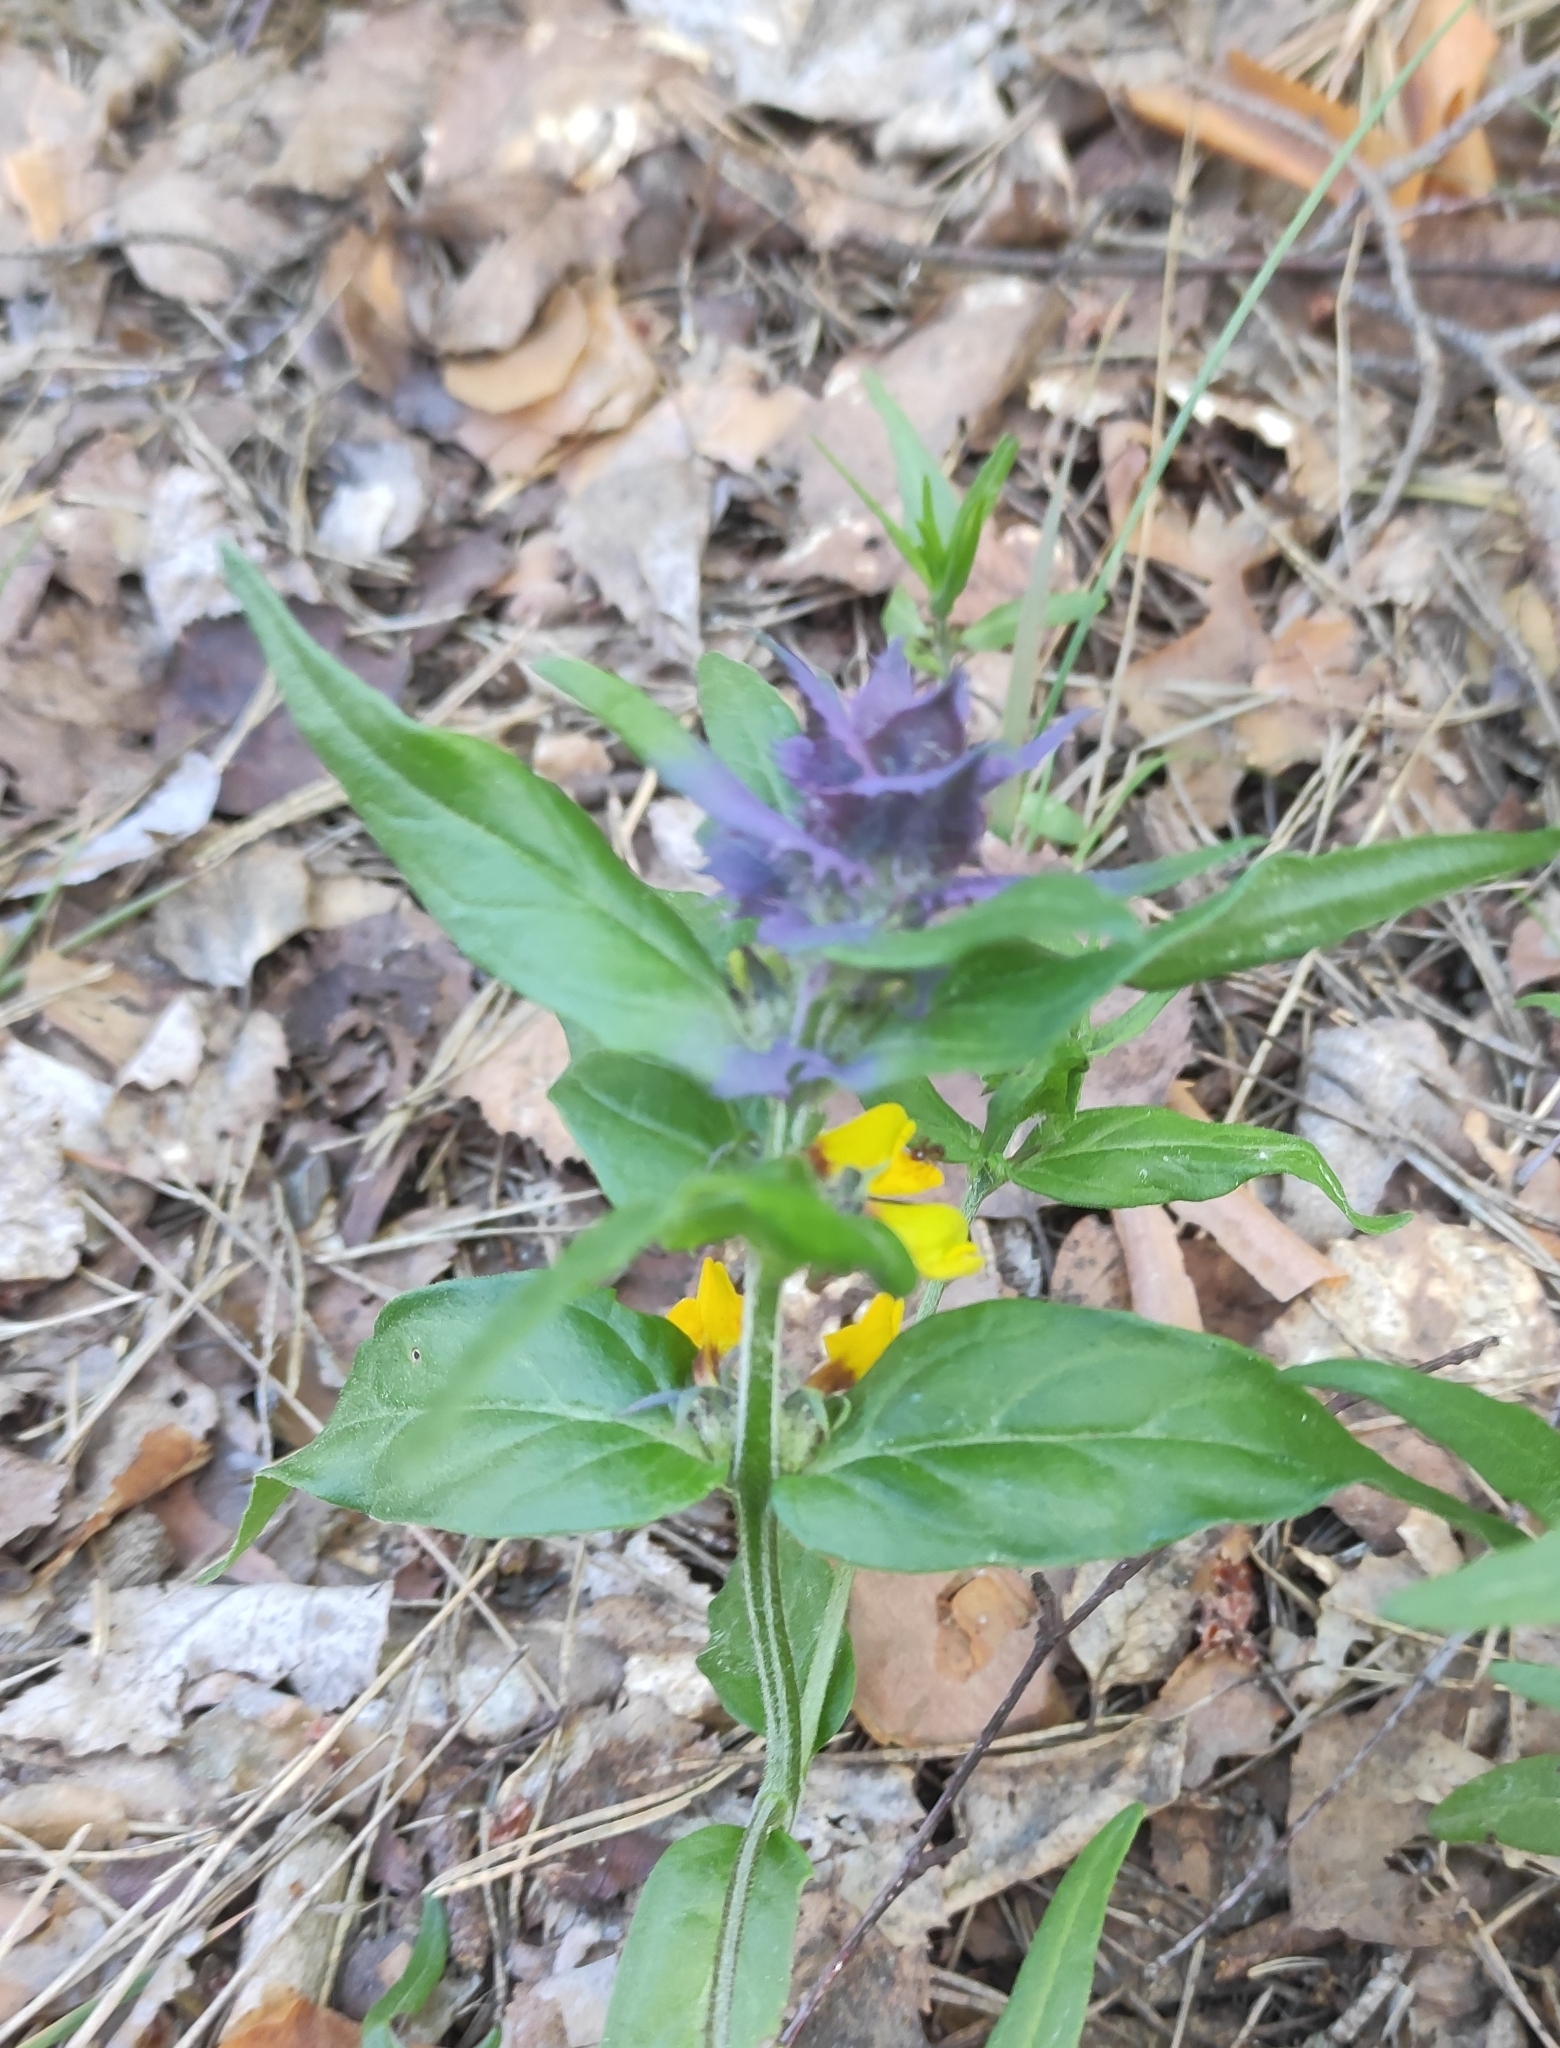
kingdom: Plantae
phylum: Tracheophyta
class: Magnoliopsida
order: Lamiales
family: Orobanchaceae
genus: Melampyrum
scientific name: Melampyrum nemorosum
